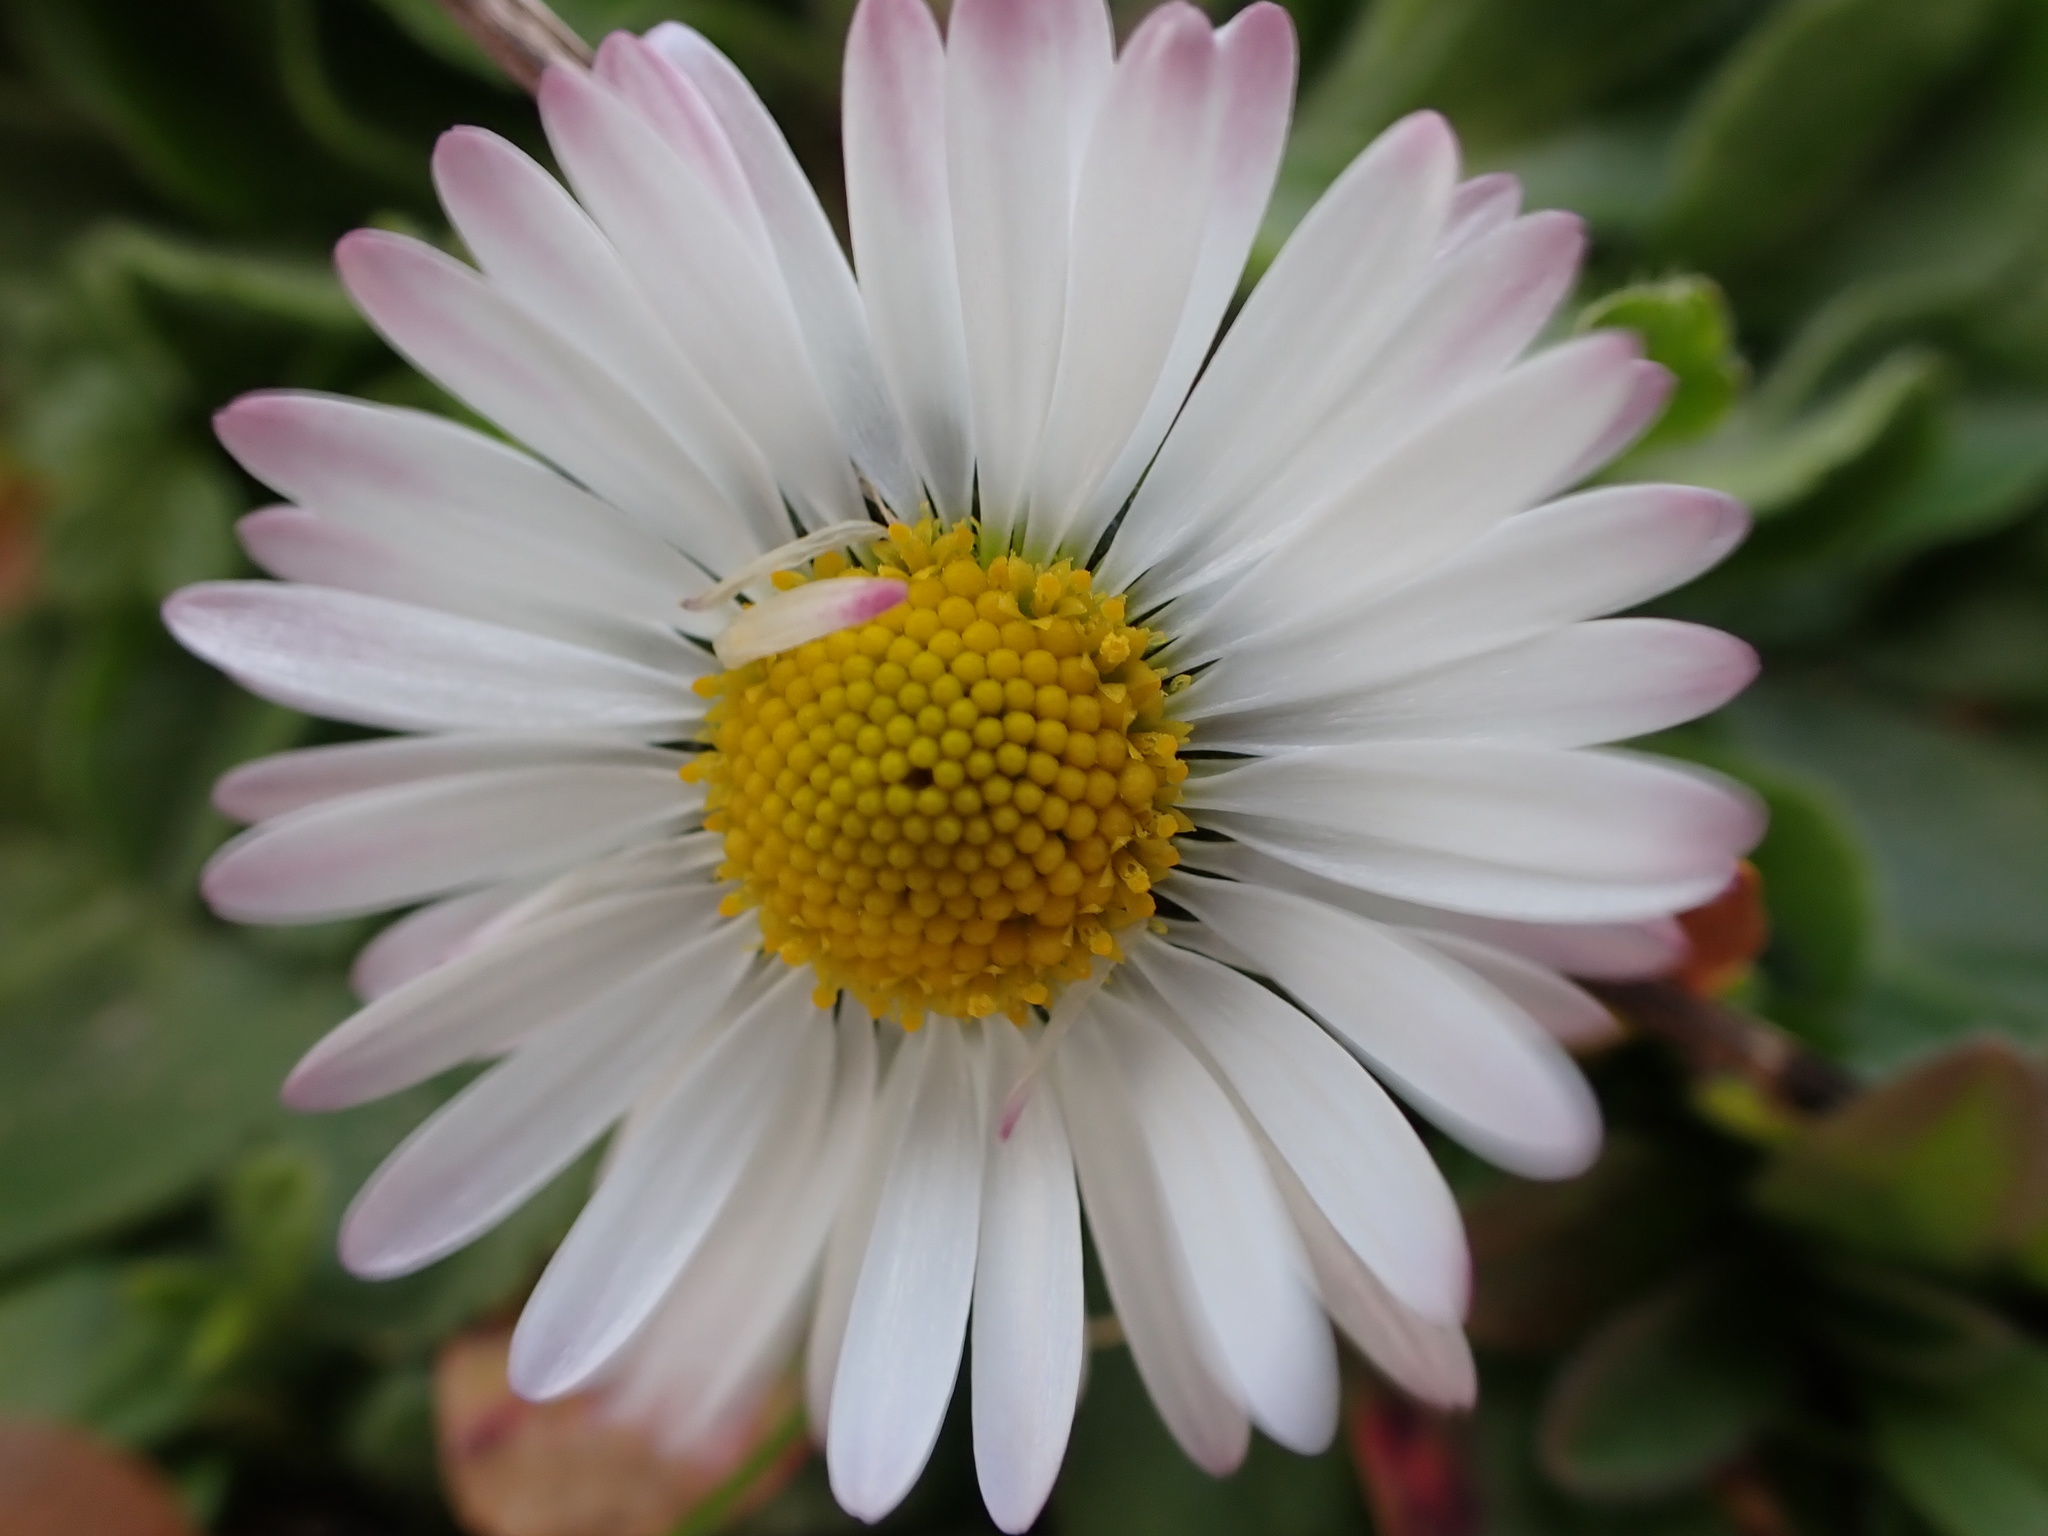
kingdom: Plantae
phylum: Tracheophyta
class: Magnoliopsida
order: Asterales
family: Asteraceae
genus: Bellis
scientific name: Bellis perennis
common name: Lawndaisy
